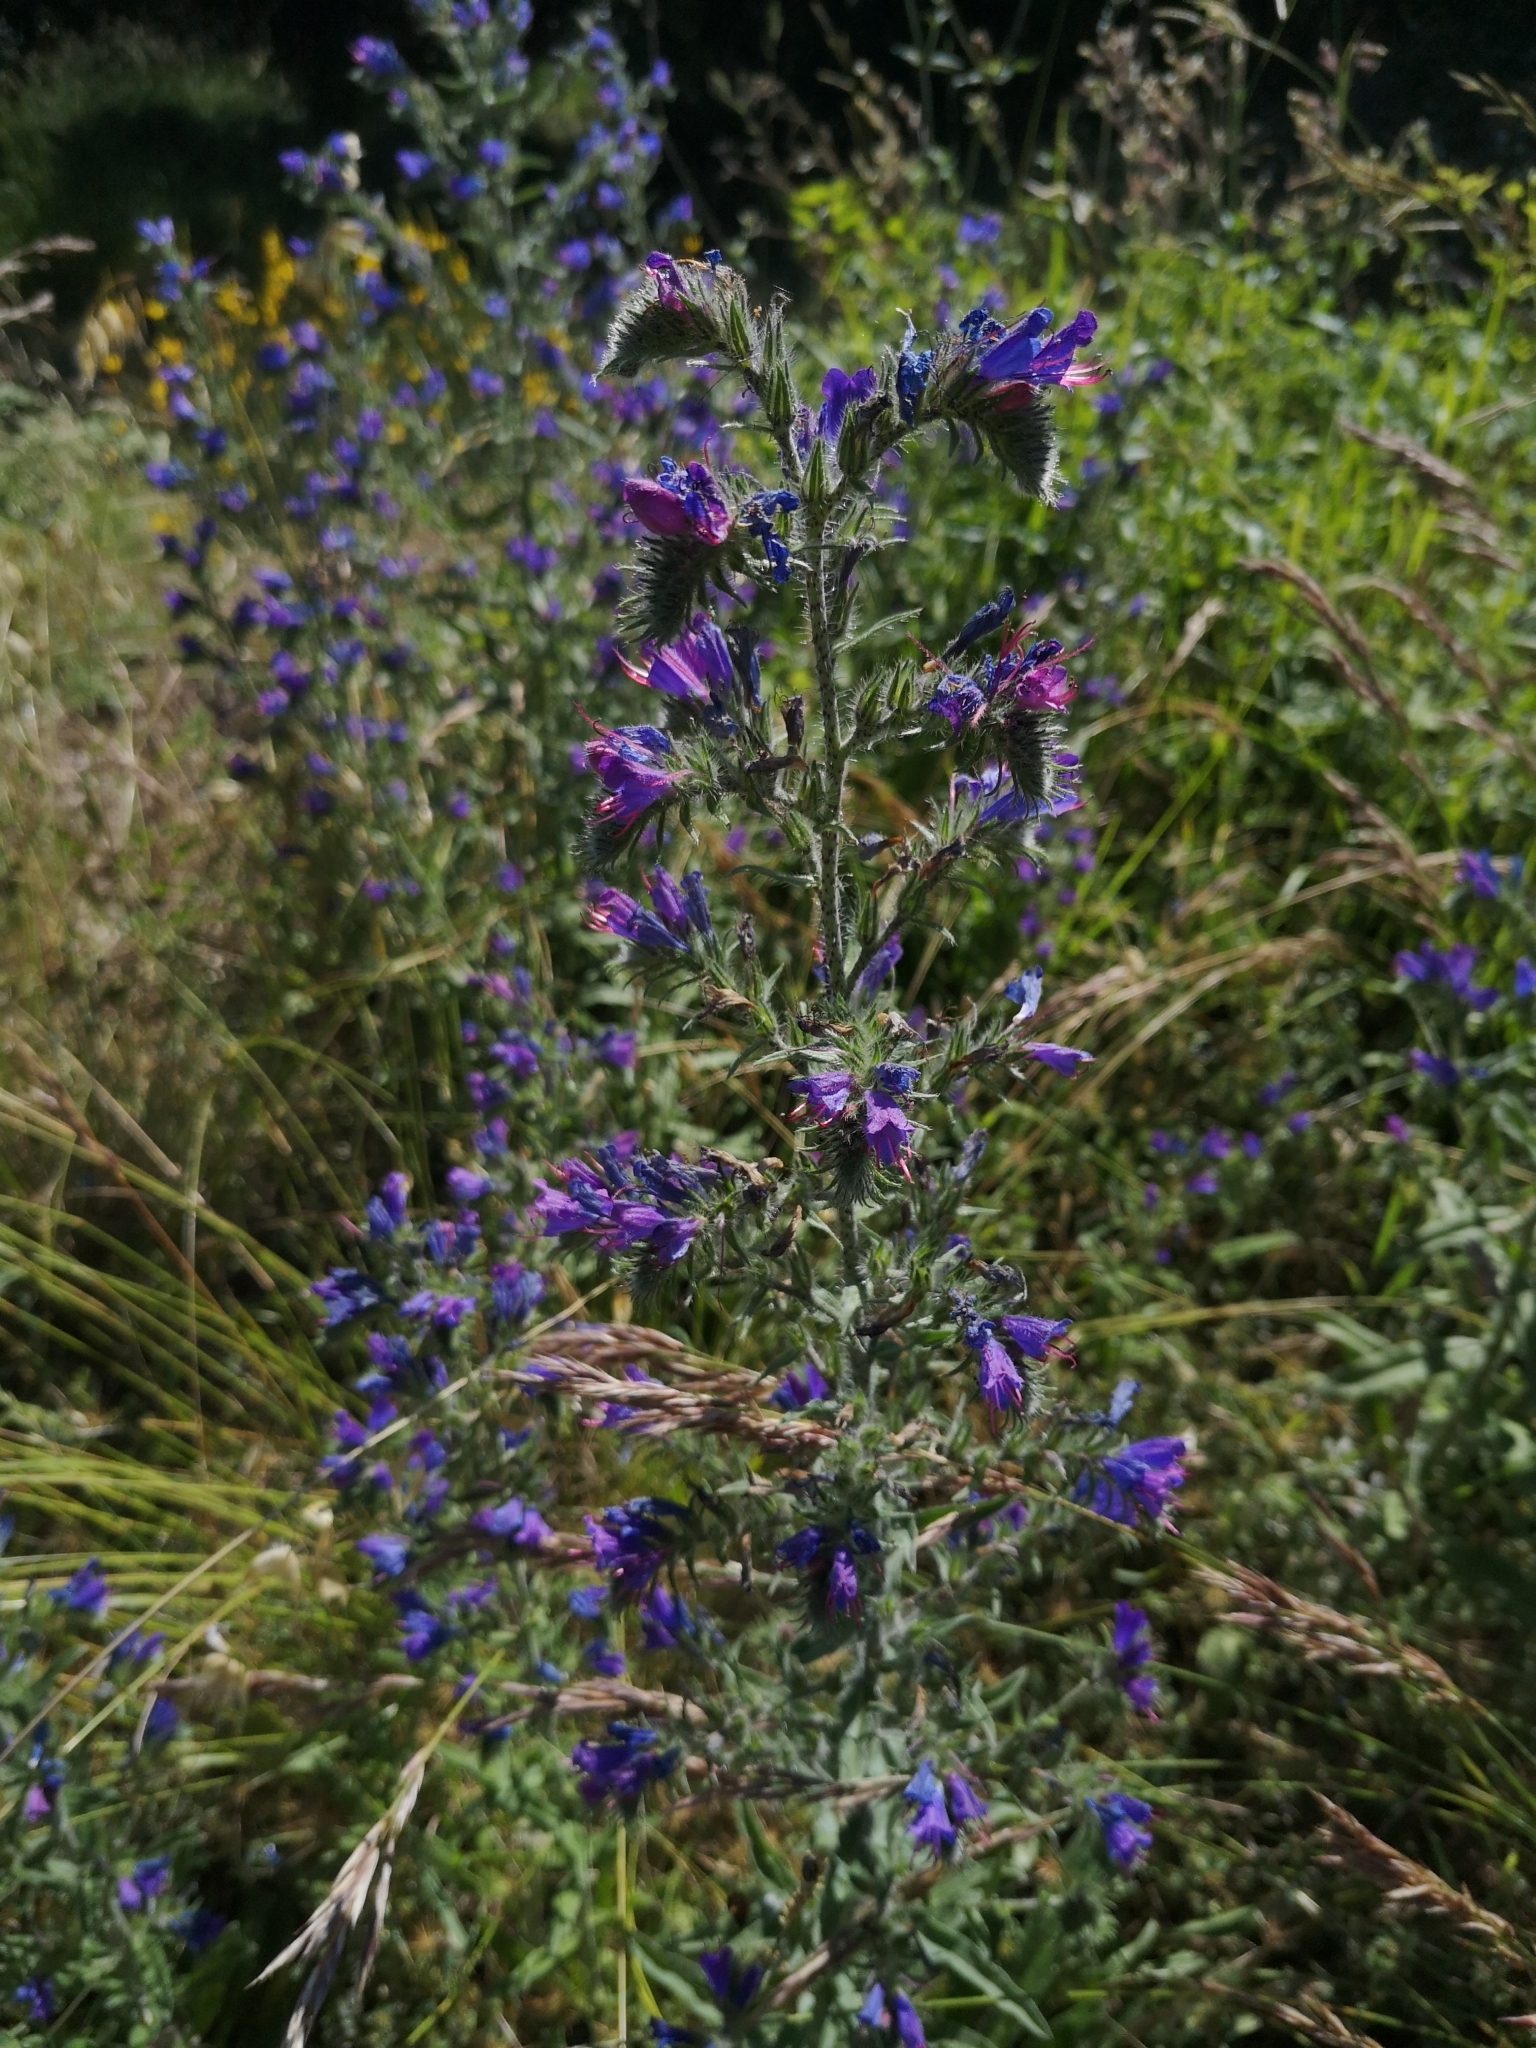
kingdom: Plantae
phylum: Tracheophyta
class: Magnoliopsida
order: Boraginales
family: Boraginaceae
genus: Echium
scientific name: Echium vulgare
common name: Common viper's bugloss
